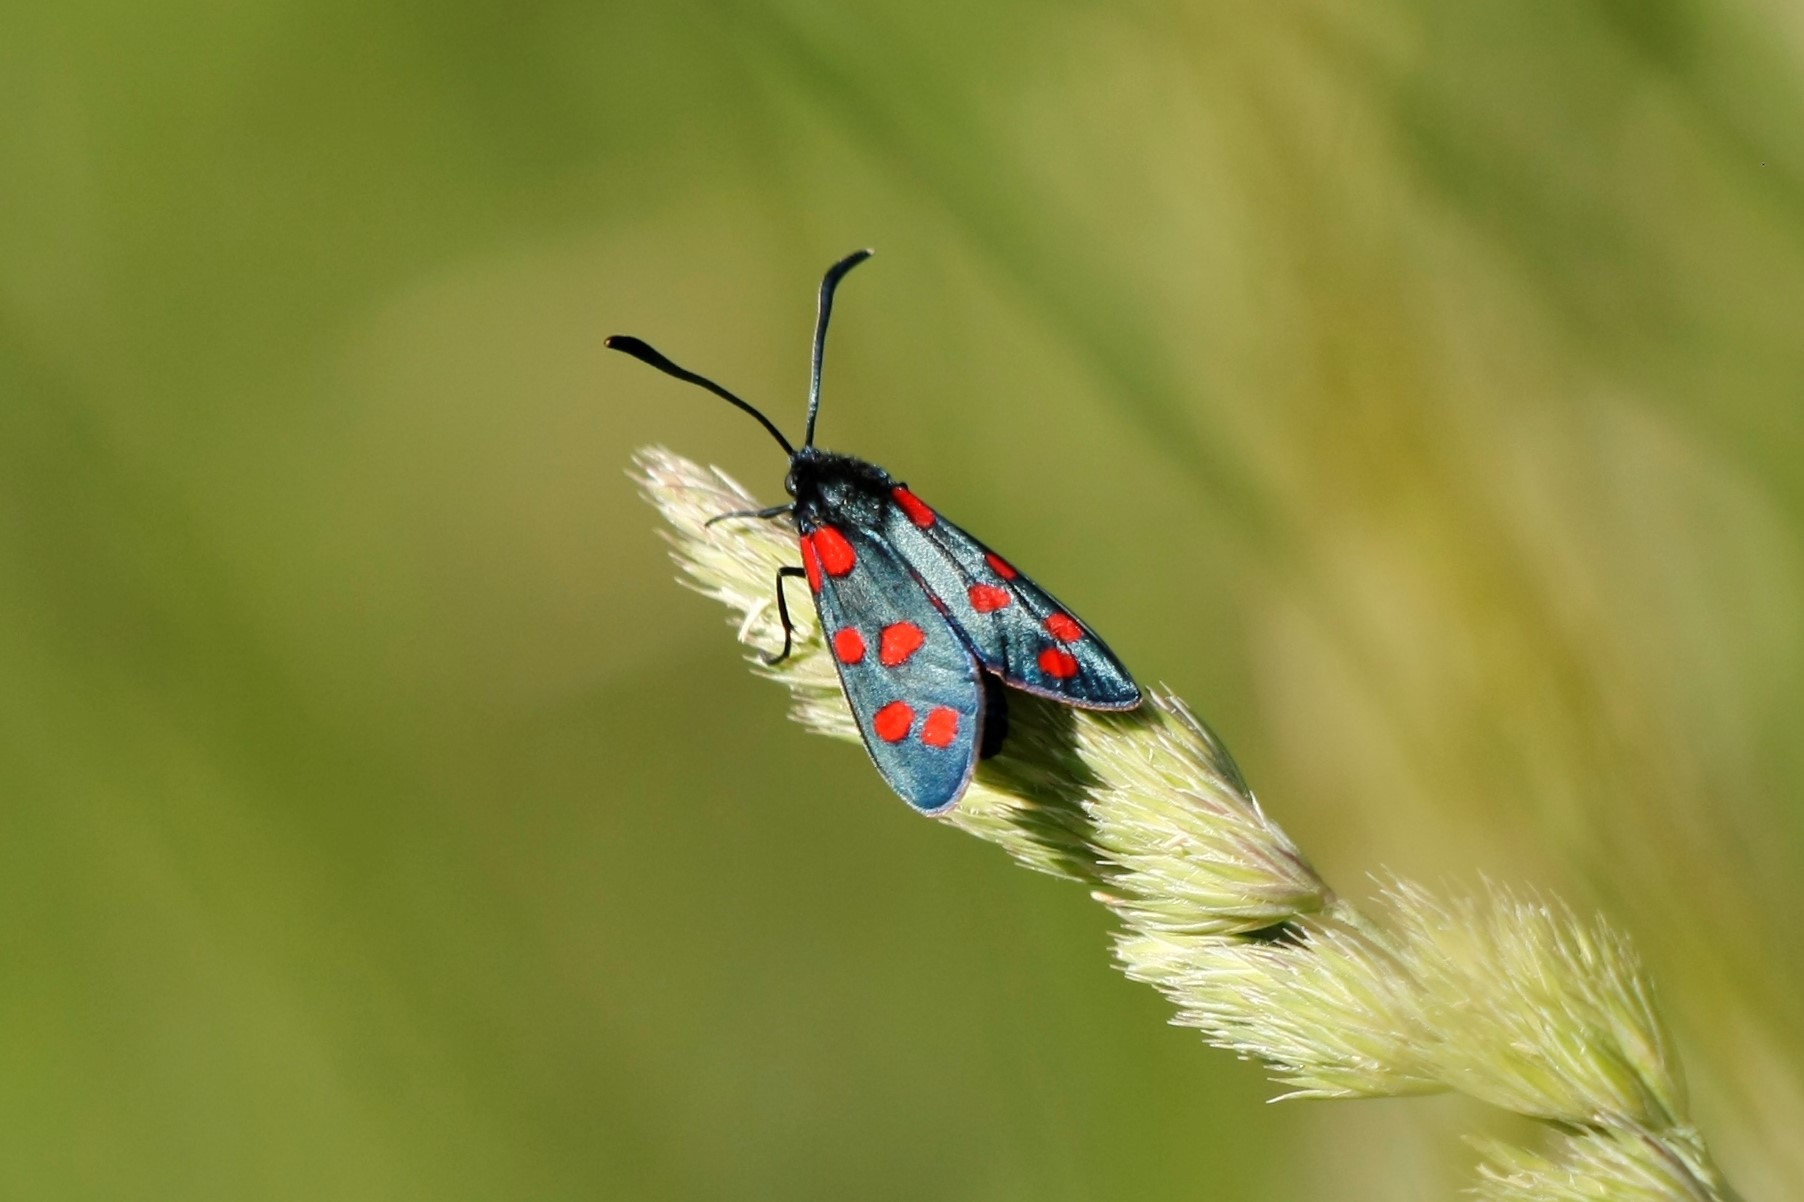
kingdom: Animalia
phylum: Arthropoda
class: Insecta
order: Lepidoptera
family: Zygaenidae
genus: Zygaena
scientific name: Zygaena transalpina
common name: Southern six spot burnet
